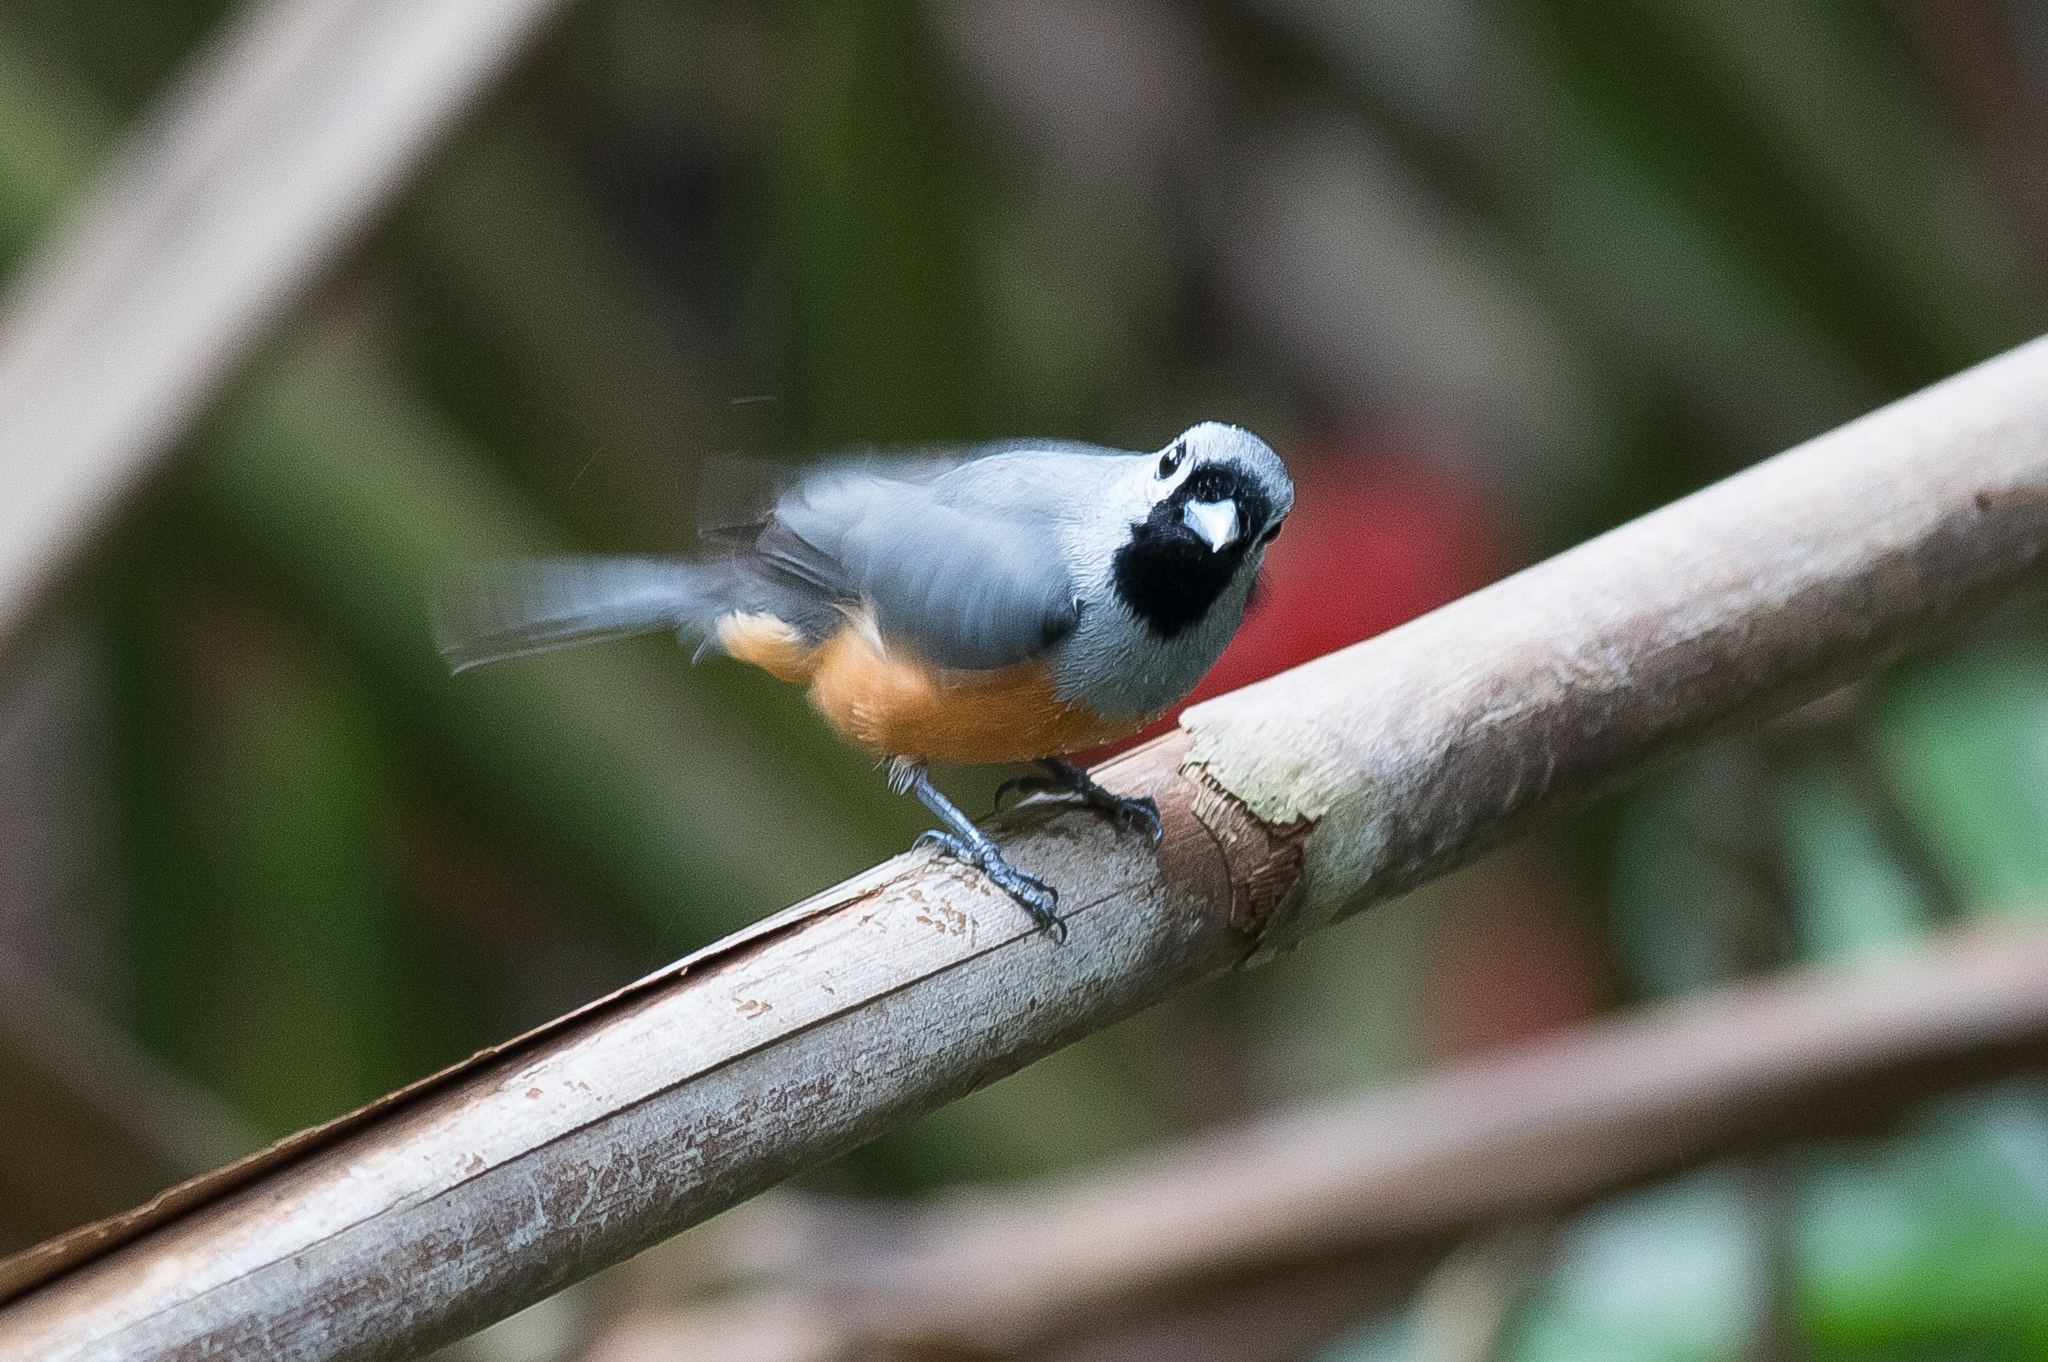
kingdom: Animalia
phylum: Chordata
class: Aves
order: Passeriformes
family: Monarchidae
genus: Monarcha
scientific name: Monarcha melanopsis
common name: Black-faced monarch
